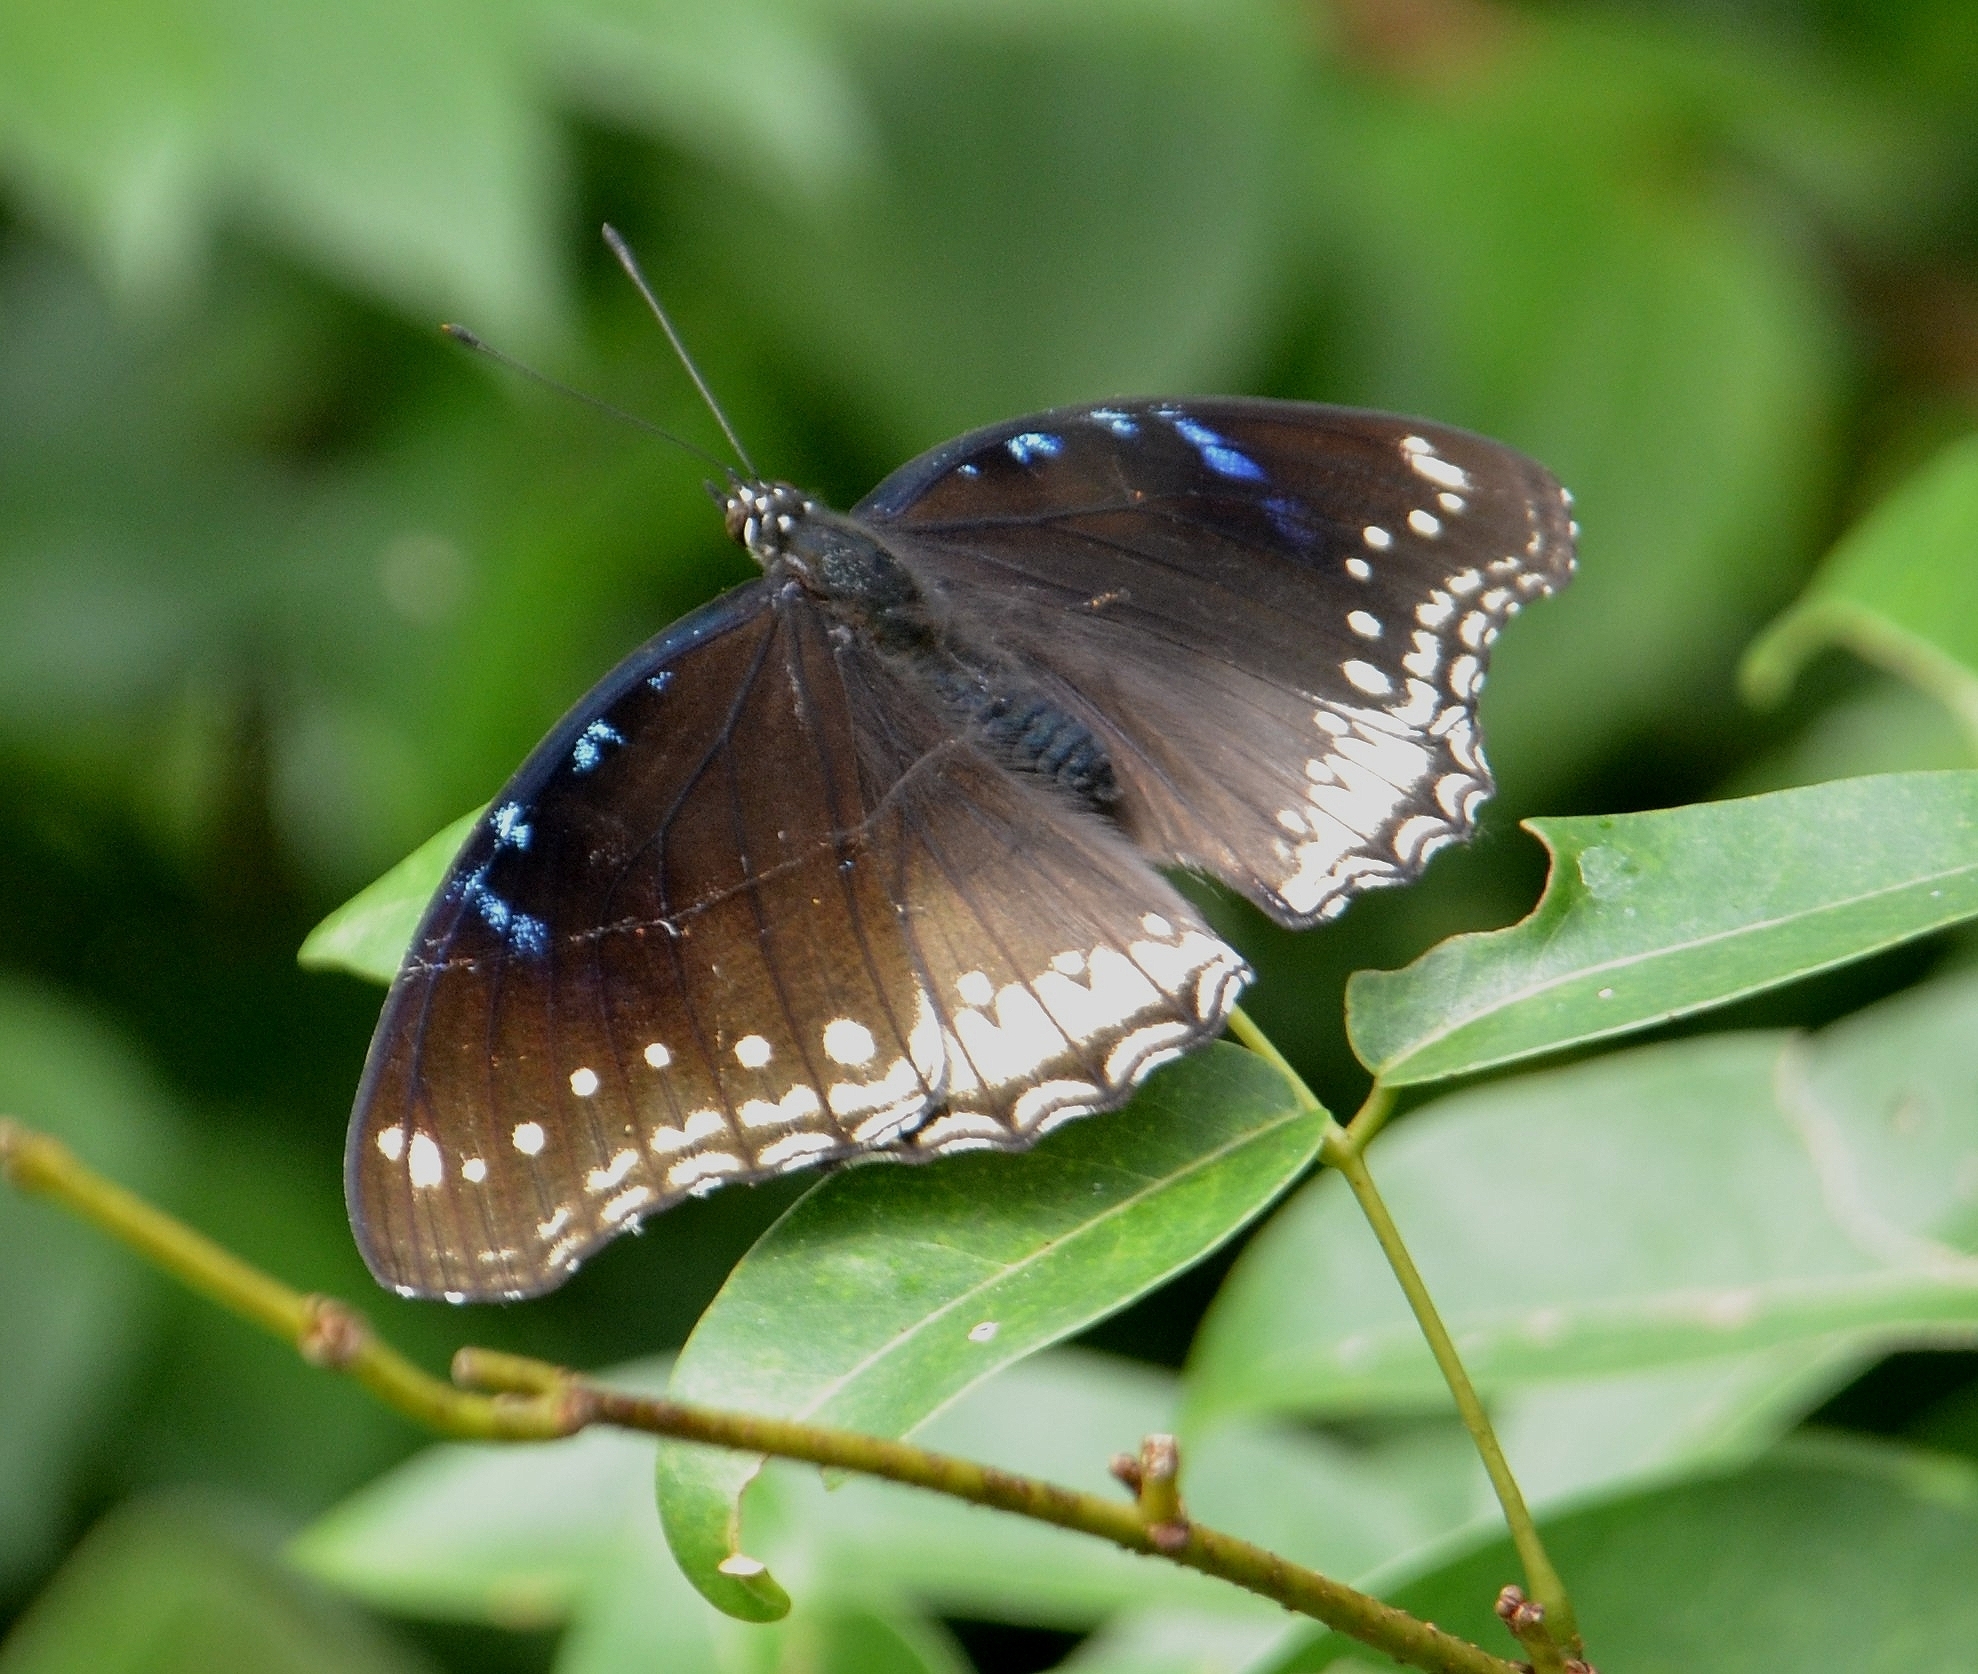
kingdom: Animalia
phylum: Arthropoda
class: Insecta
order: Lepidoptera
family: Nymphalidae
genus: Hypolimnas
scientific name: Hypolimnas bolina
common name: Great eggfly
